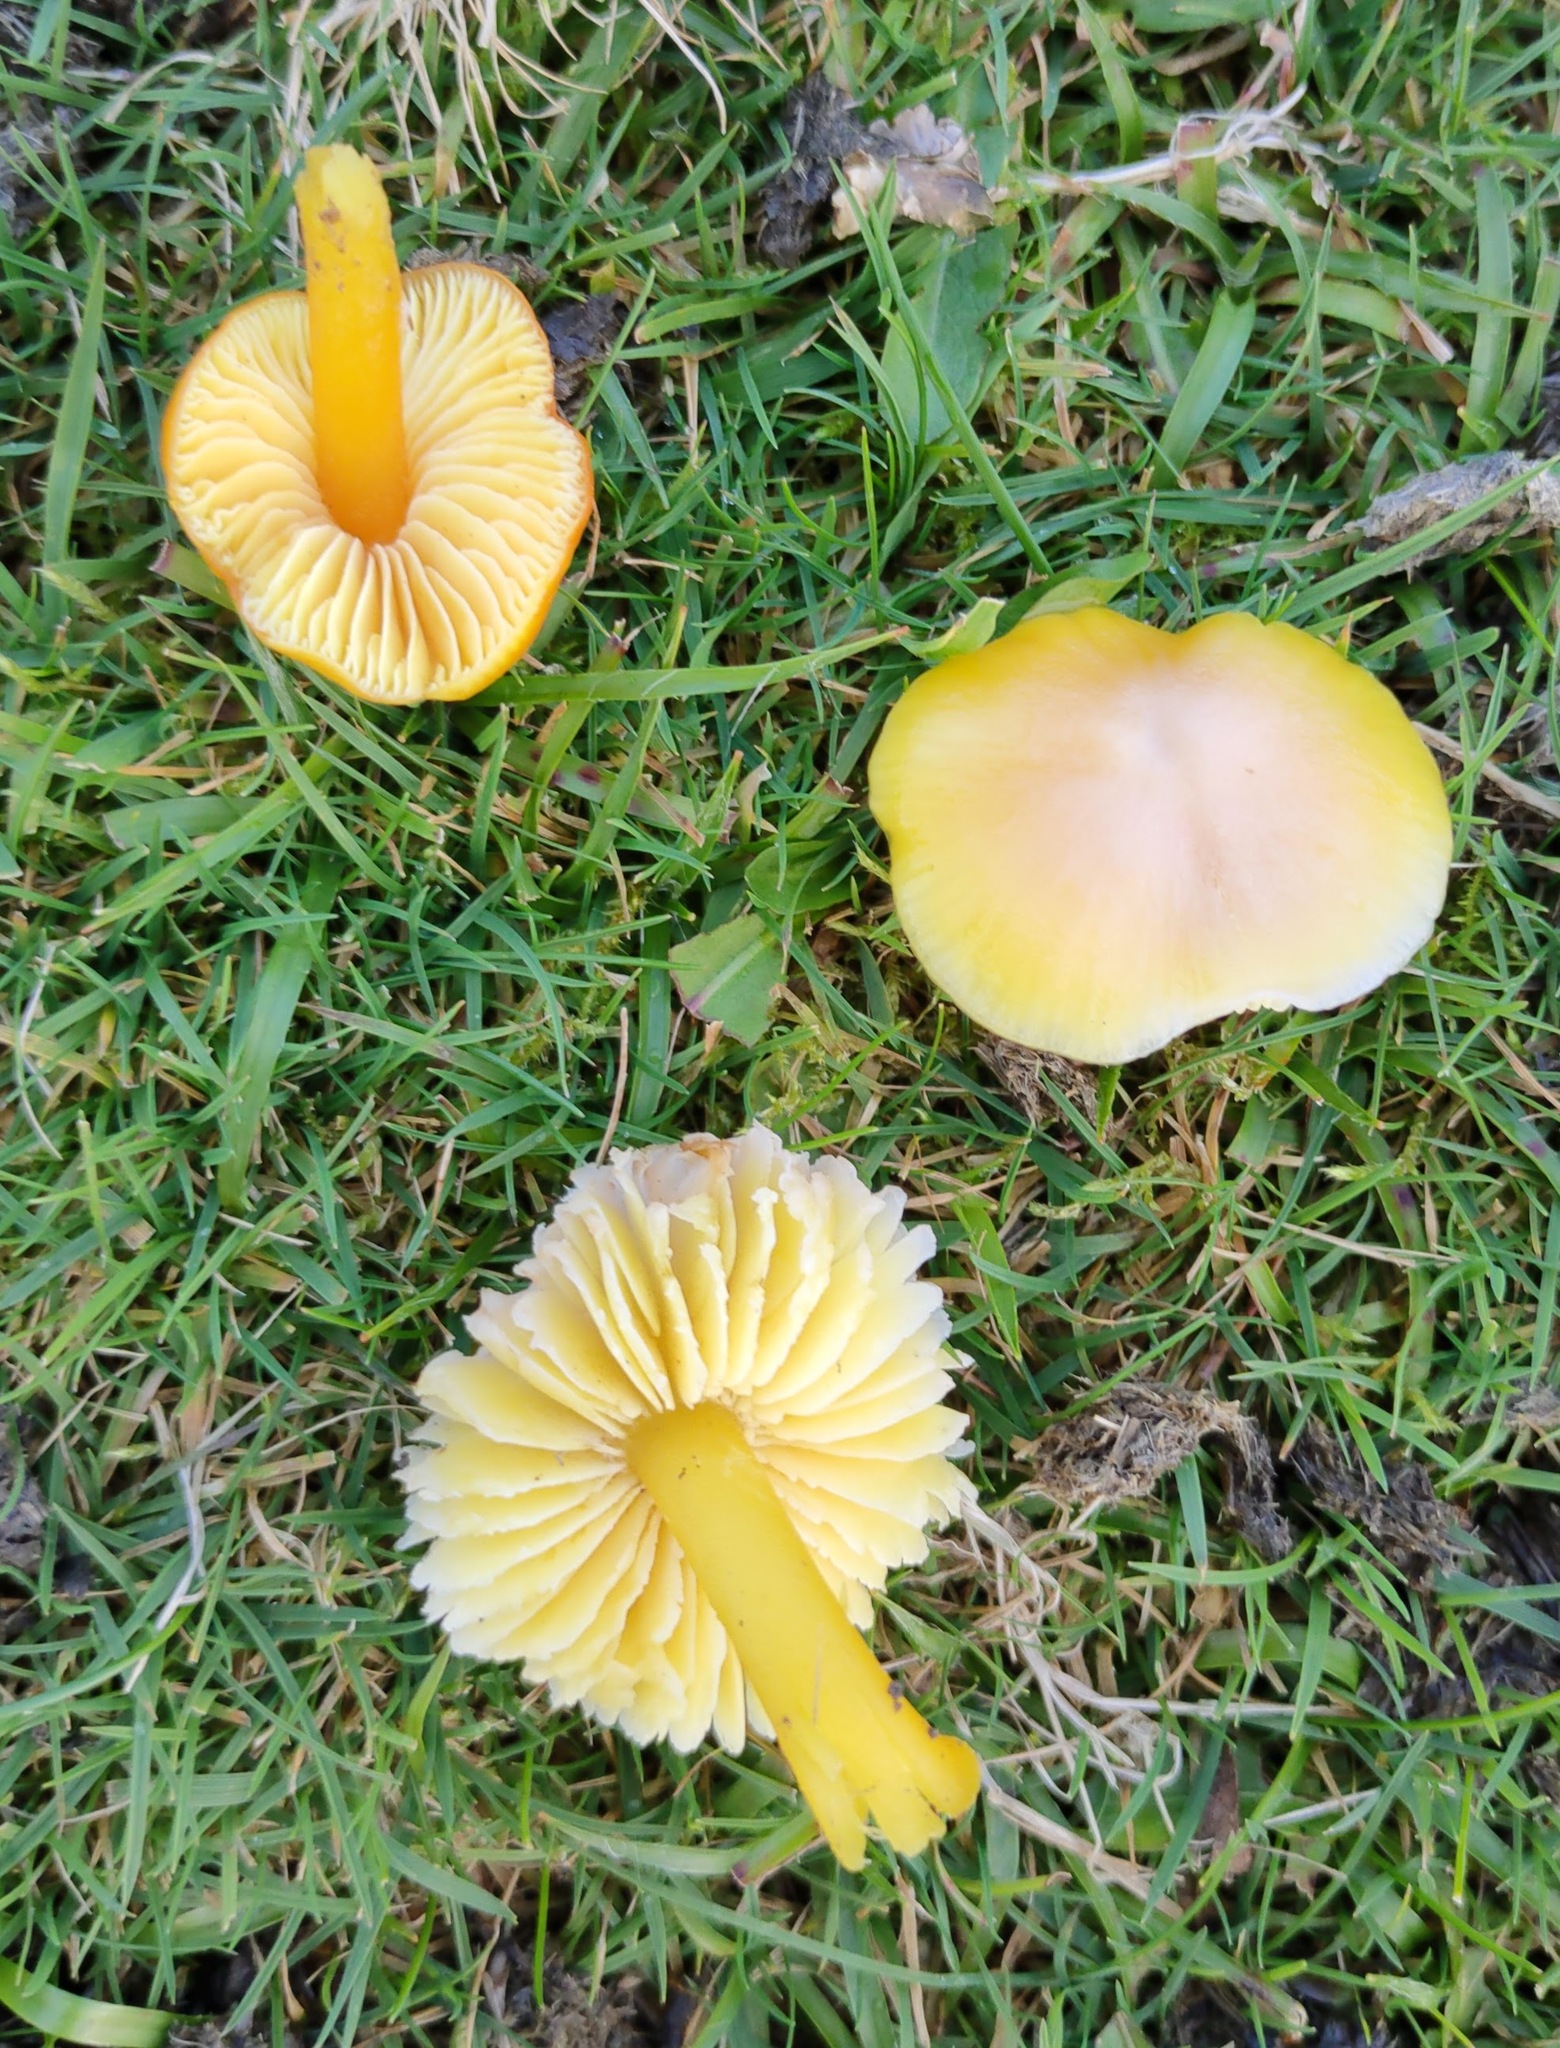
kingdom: Fungi
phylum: Basidiomycota
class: Agaricomycetes
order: Agaricales
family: Hygrophoraceae
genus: Hygrocybe
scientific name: Hygrocybe chlorophana
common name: Golden waxcap
